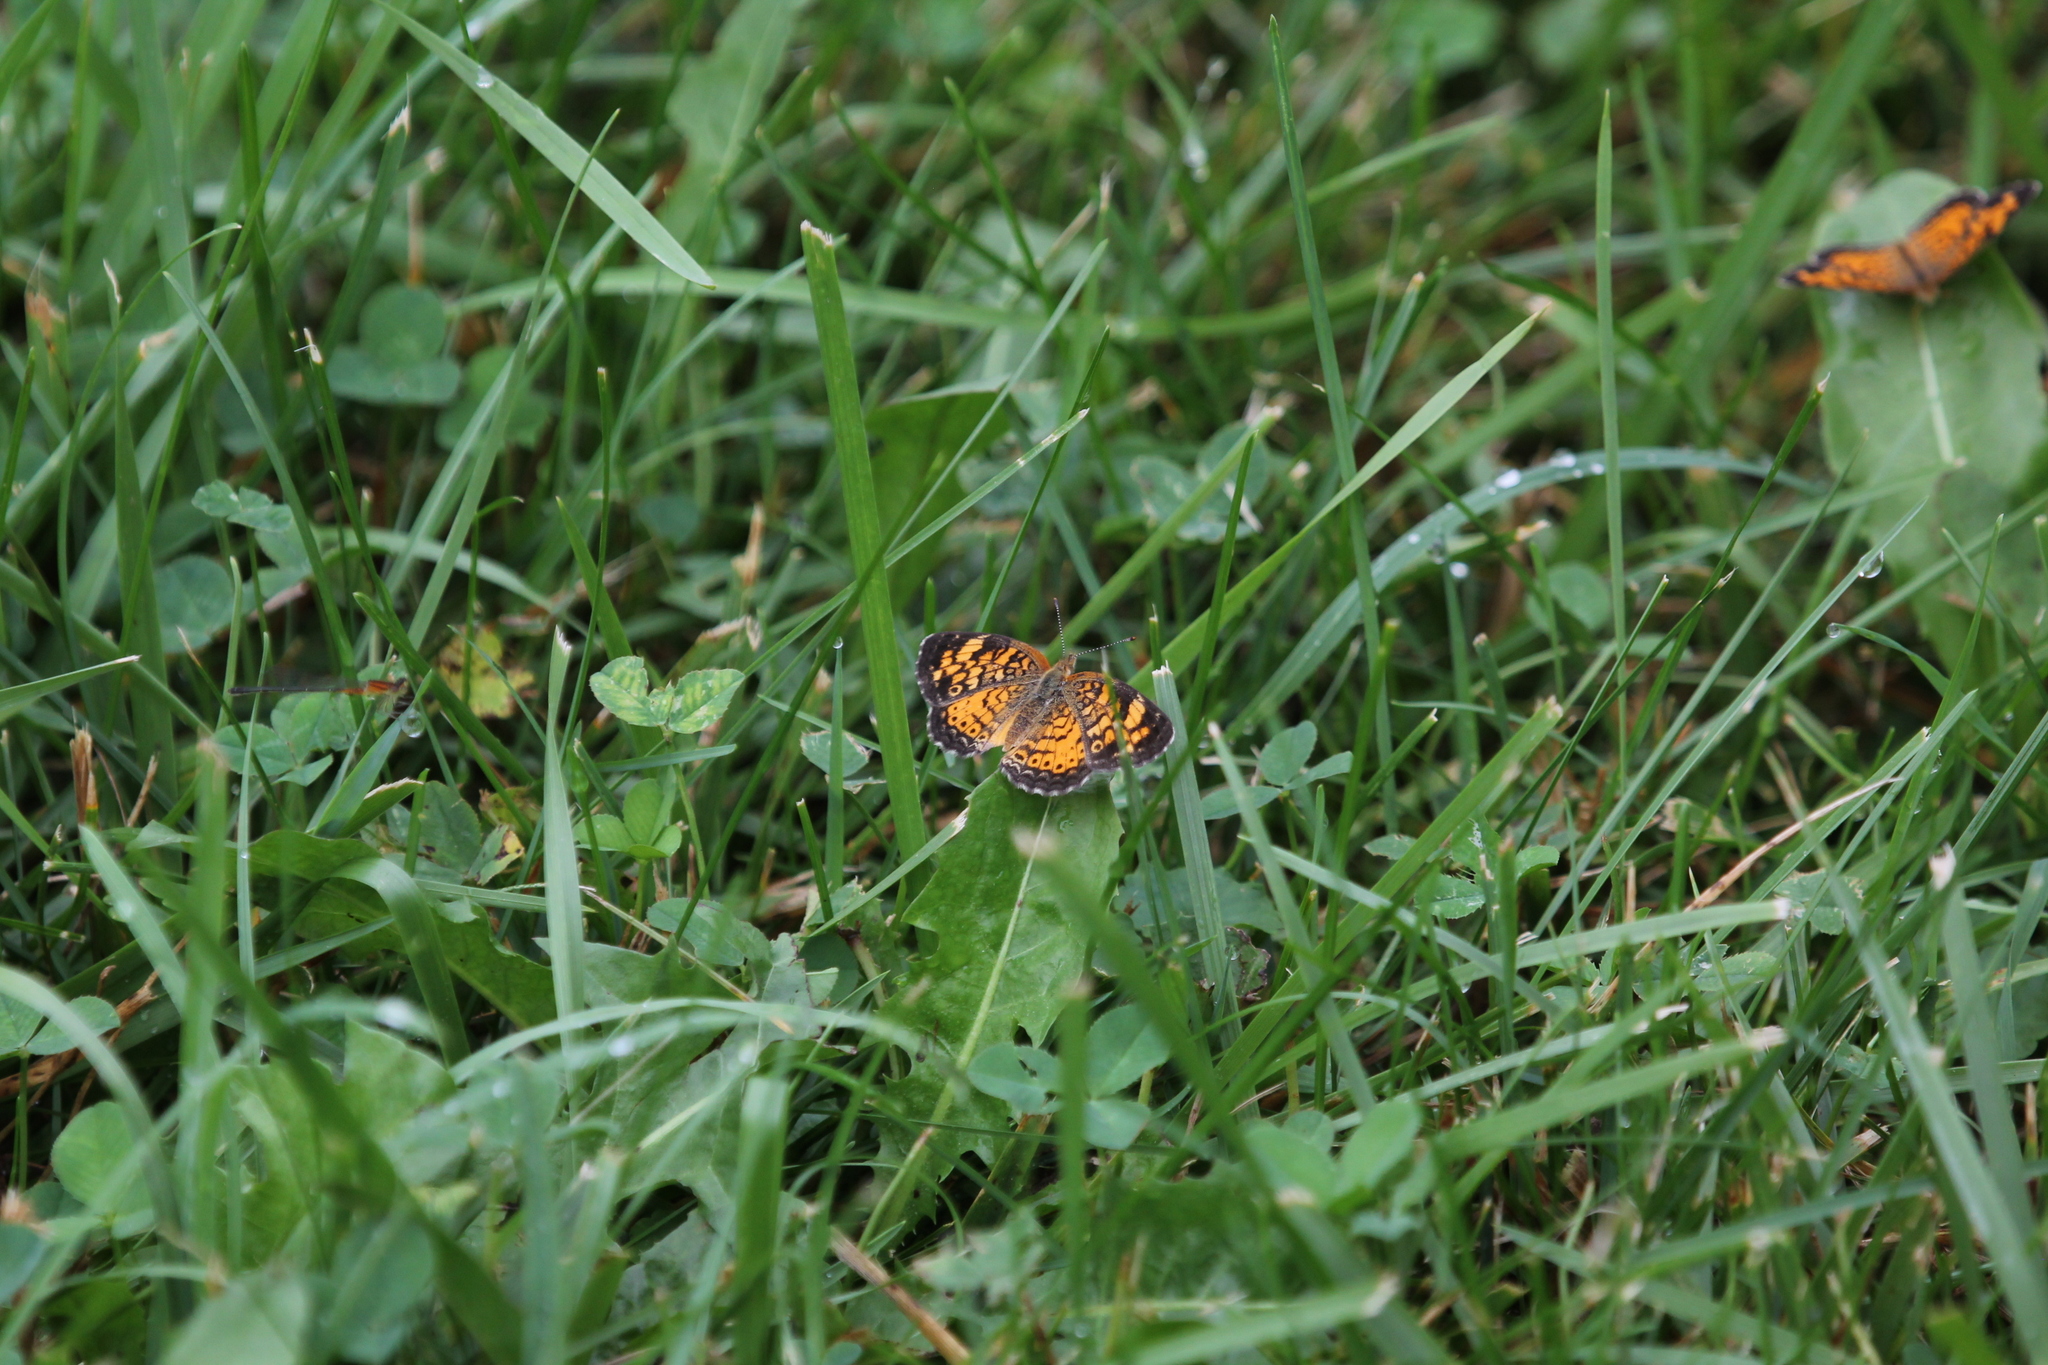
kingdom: Animalia
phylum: Arthropoda
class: Insecta
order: Lepidoptera
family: Nymphalidae
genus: Phyciodes
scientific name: Phyciodes tharos
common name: Pearl crescent
